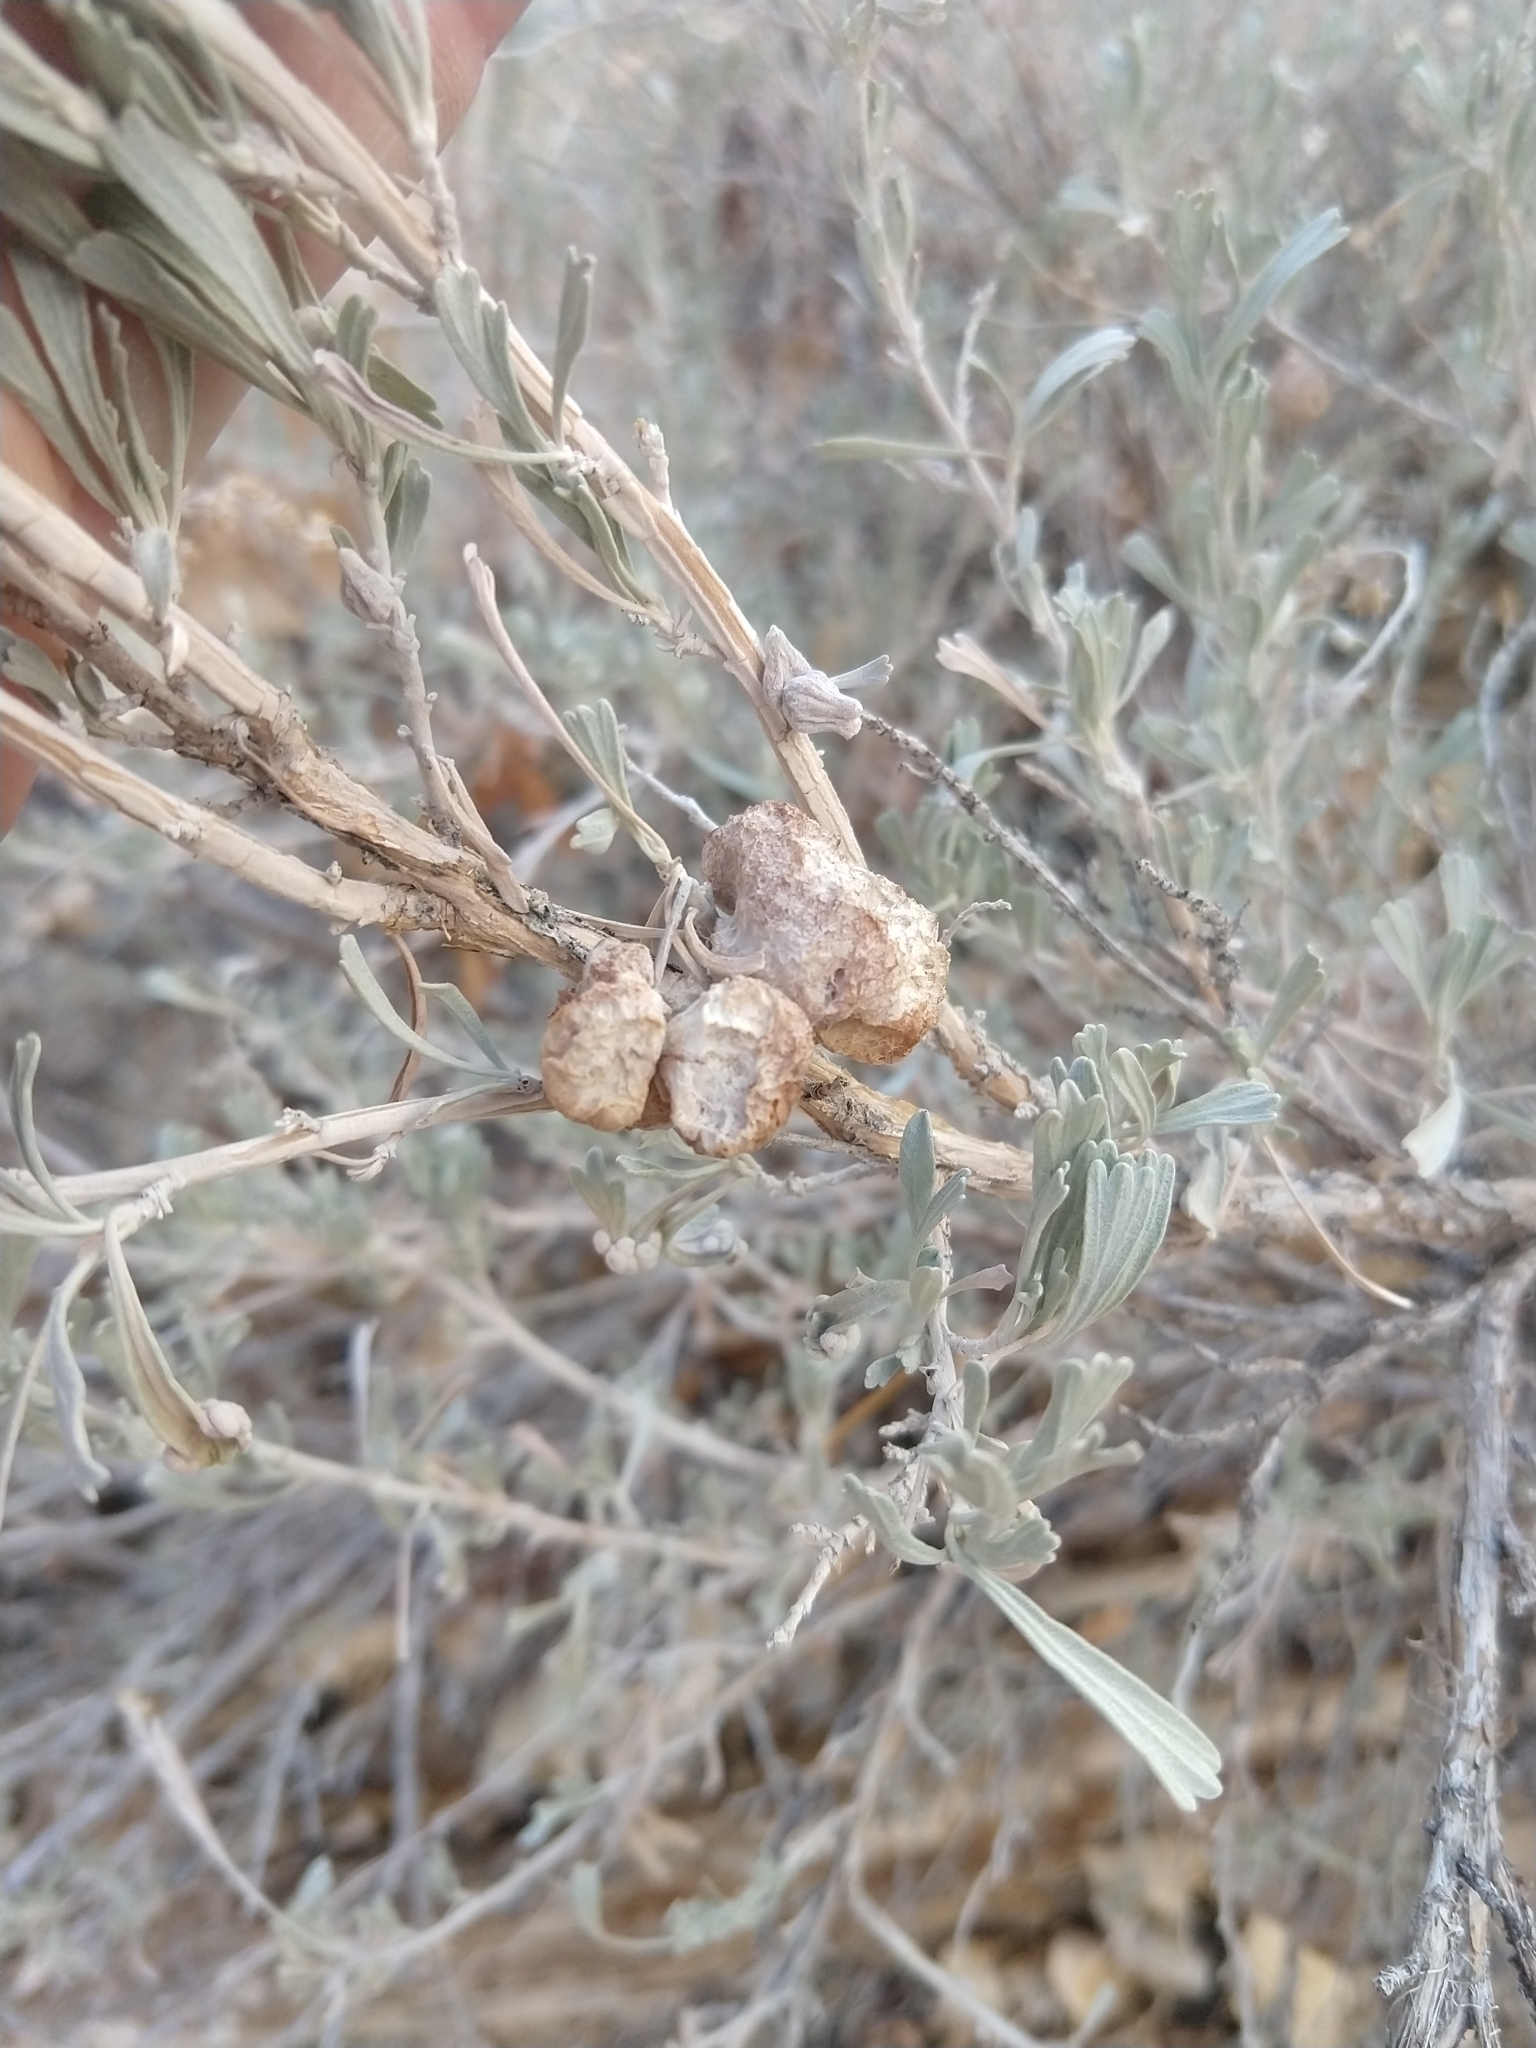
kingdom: Animalia
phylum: Arthropoda
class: Insecta
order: Diptera
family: Cecidomyiidae
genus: Rhopalomyia
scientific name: Rhopalomyia pomum
